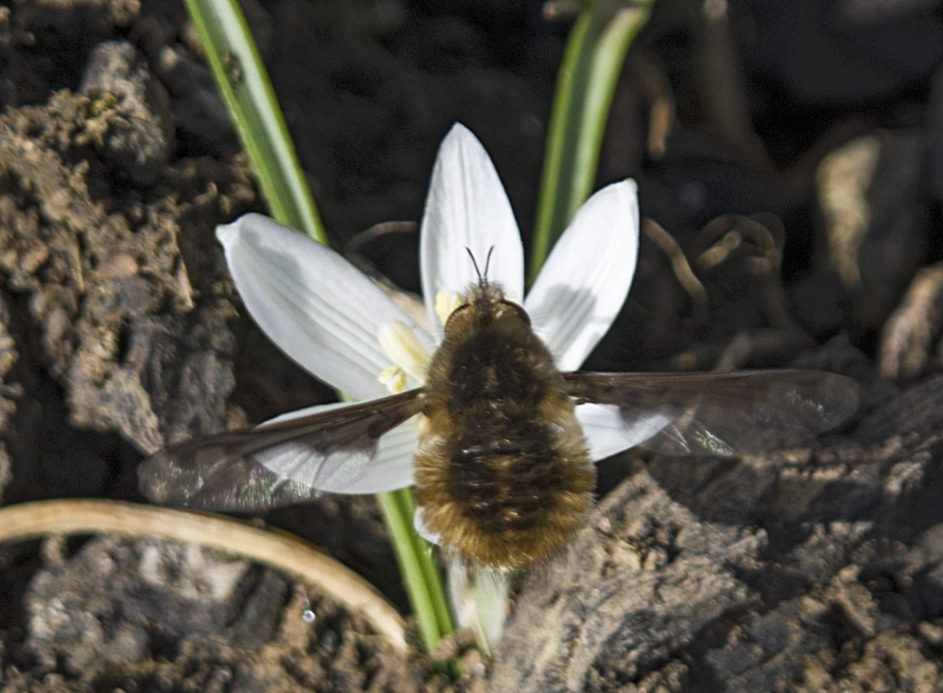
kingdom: Animalia
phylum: Arthropoda
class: Insecta
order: Diptera
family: Bombyliidae
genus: Bombylius
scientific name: Bombylius major
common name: Bee fly
